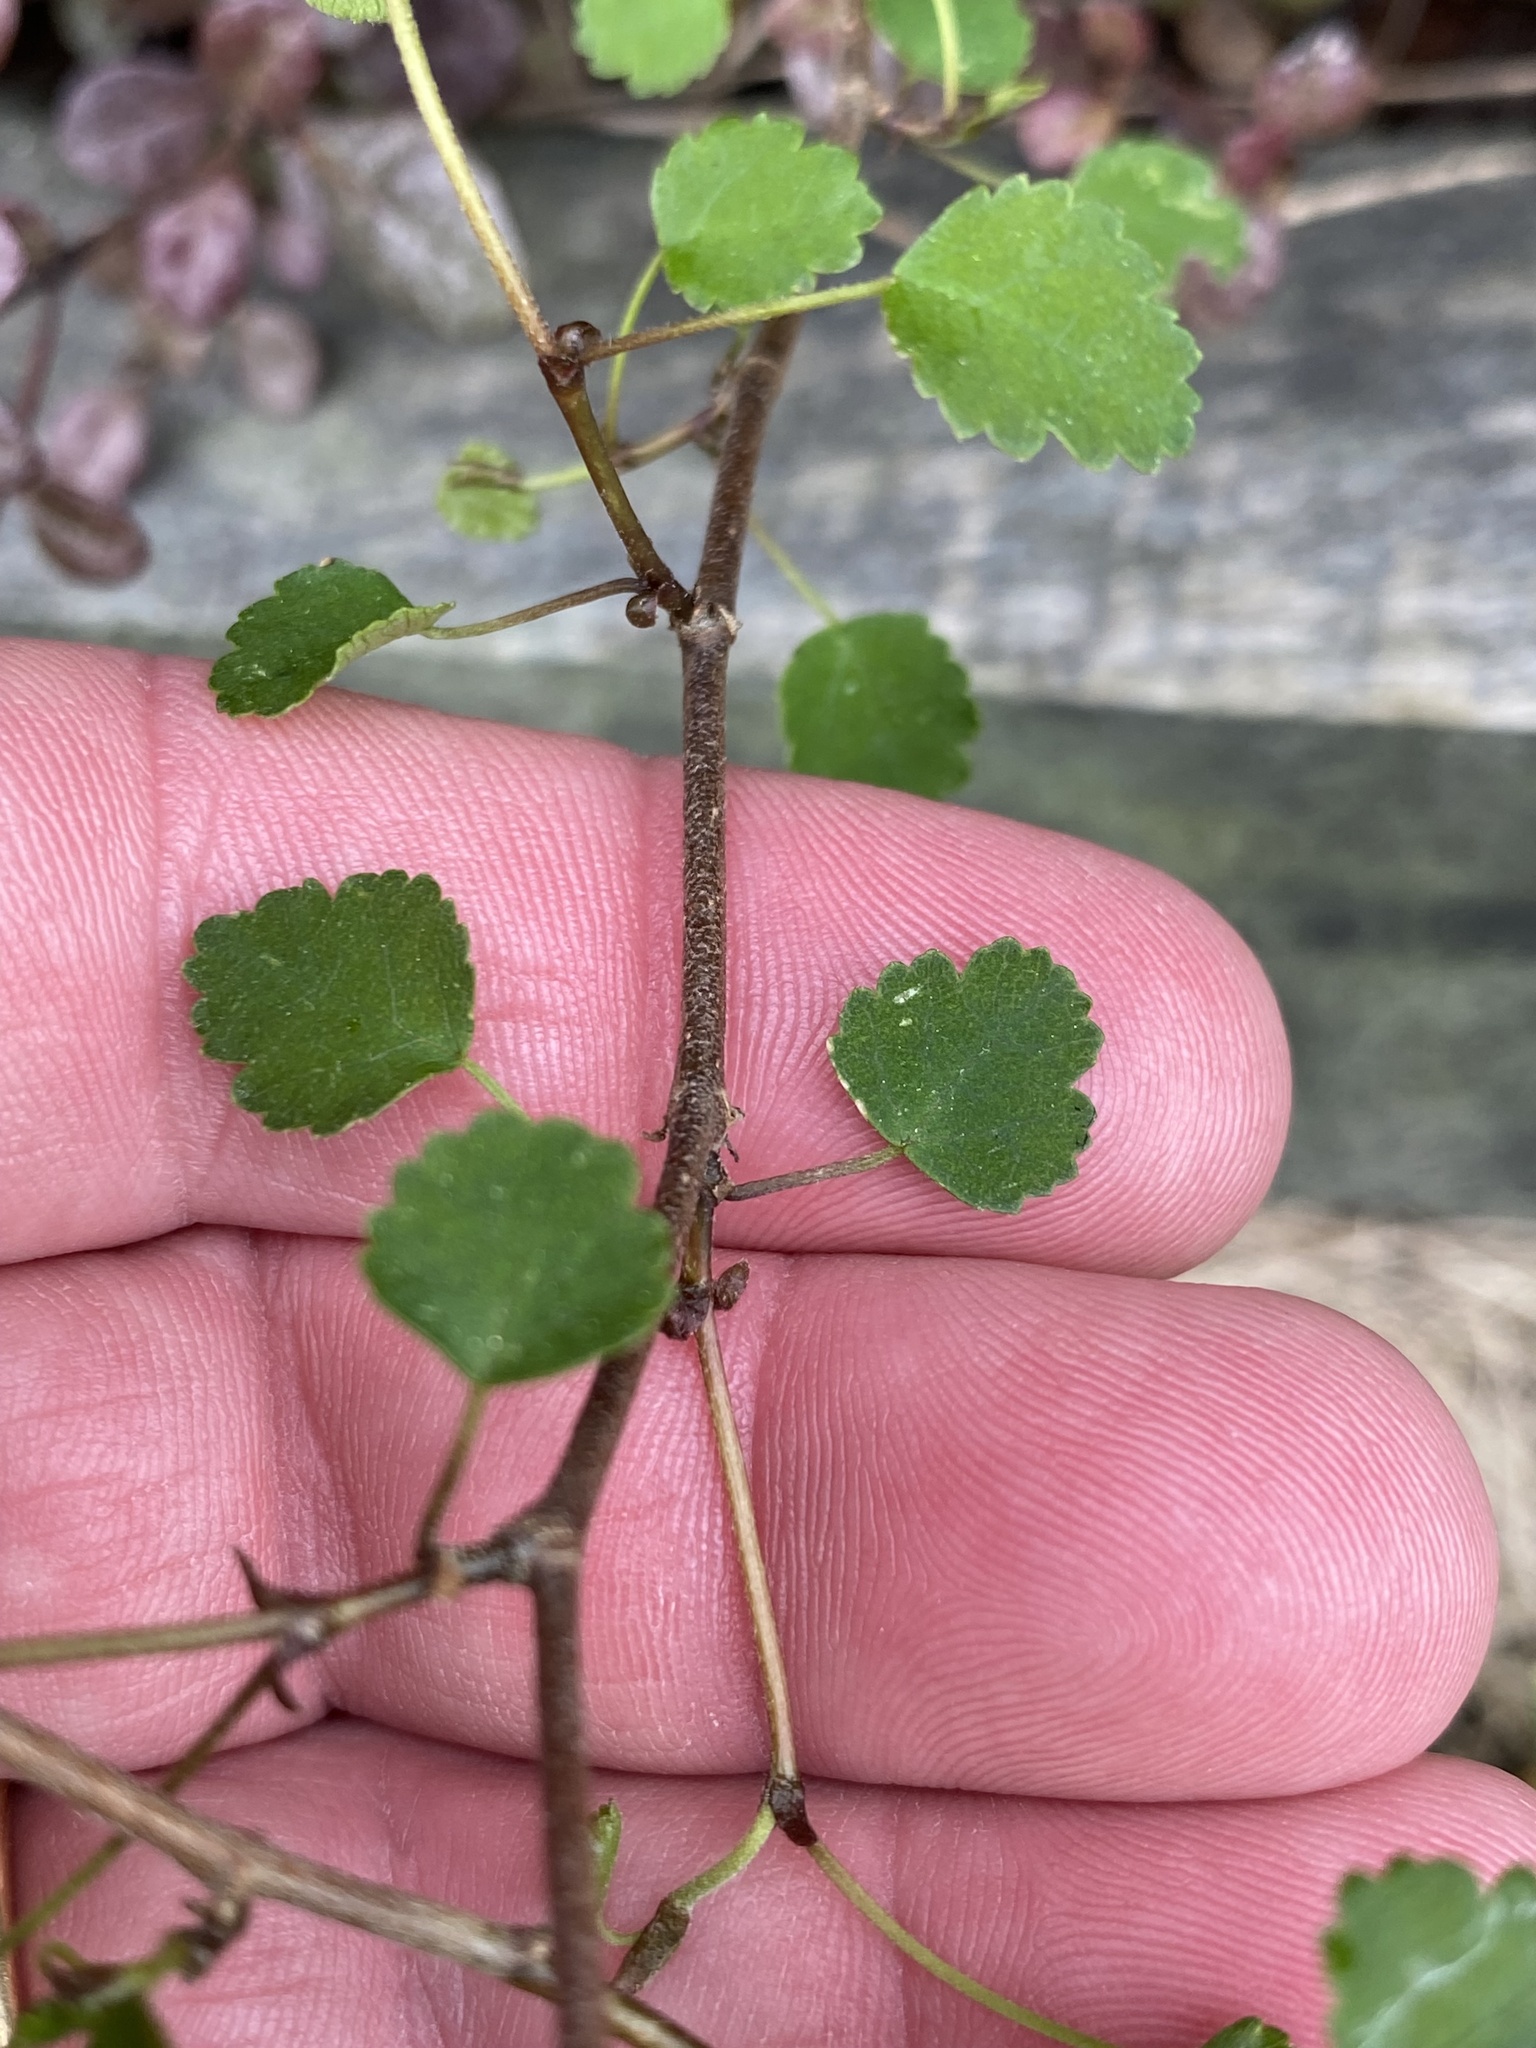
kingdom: Plantae
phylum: Tracheophyta
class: Magnoliopsida
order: Malvales
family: Malvaceae
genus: Plagianthus
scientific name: Plagianthus regius
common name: Manatu
